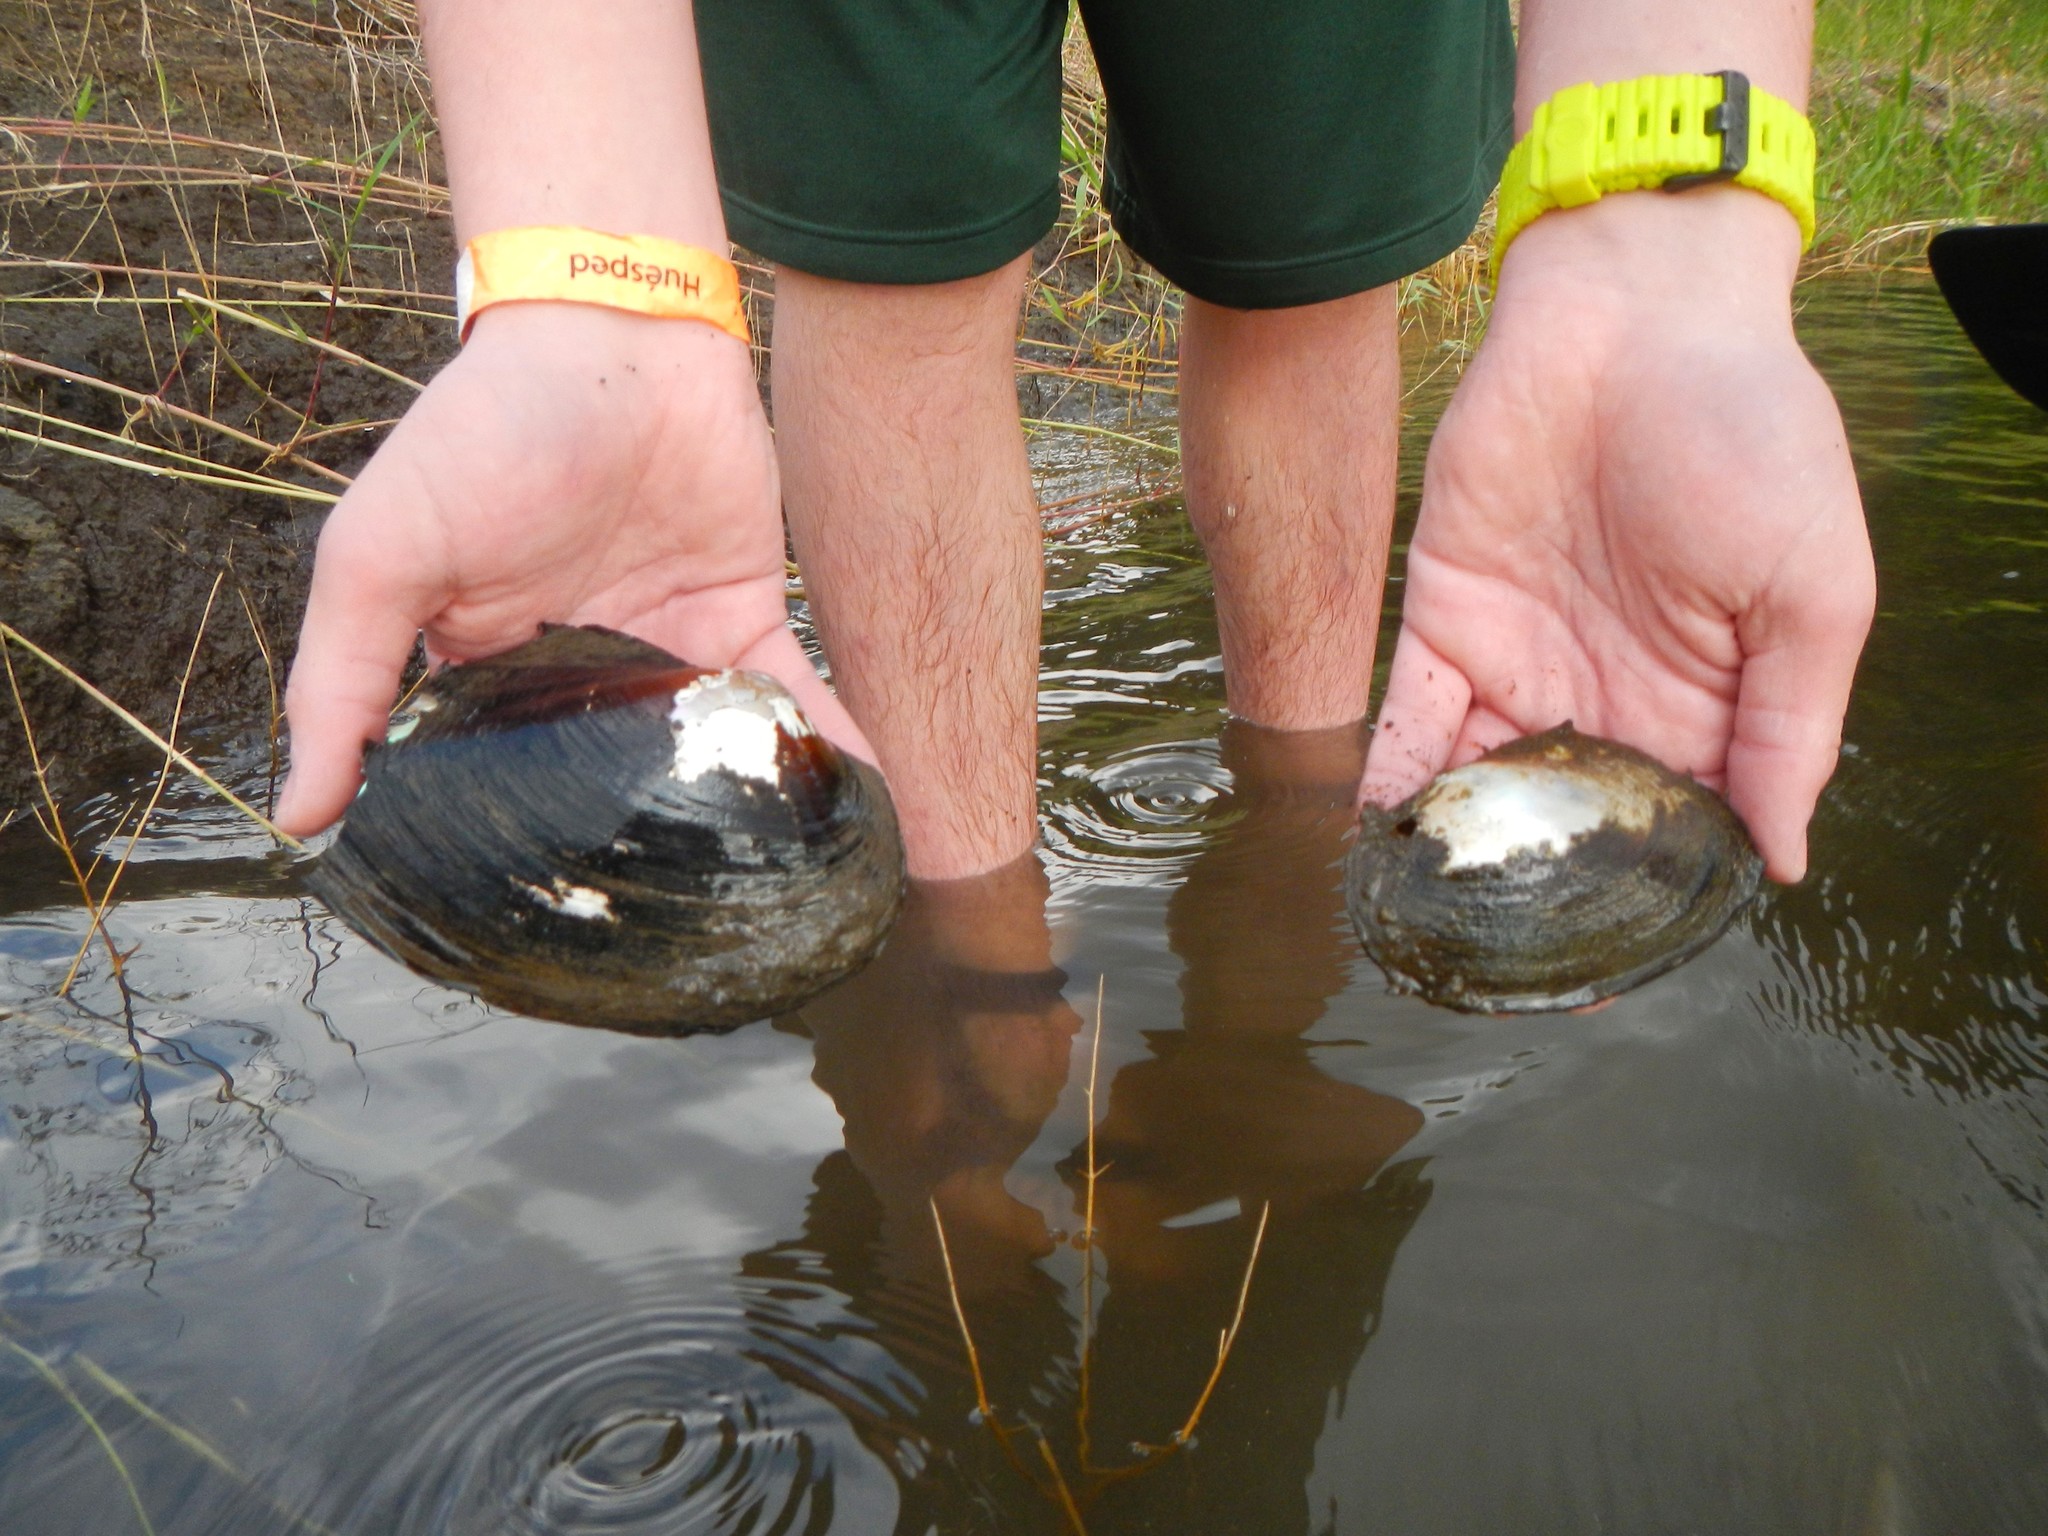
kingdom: Animalia
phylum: Mollusca
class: Bivalvia
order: Unionida
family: Unionidae
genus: Sinanodonta
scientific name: Sinanodonta woodiana
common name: Chinese pond mussel
